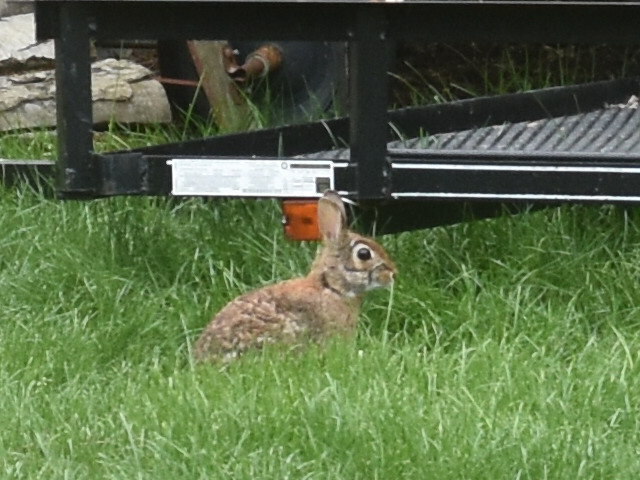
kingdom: Animalia
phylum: Chordata
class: Mammalia
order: Lagomorpha
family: Leporidae
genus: Sylvilagus
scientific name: Sylvilagus floridanus
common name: Eastern cottontail
